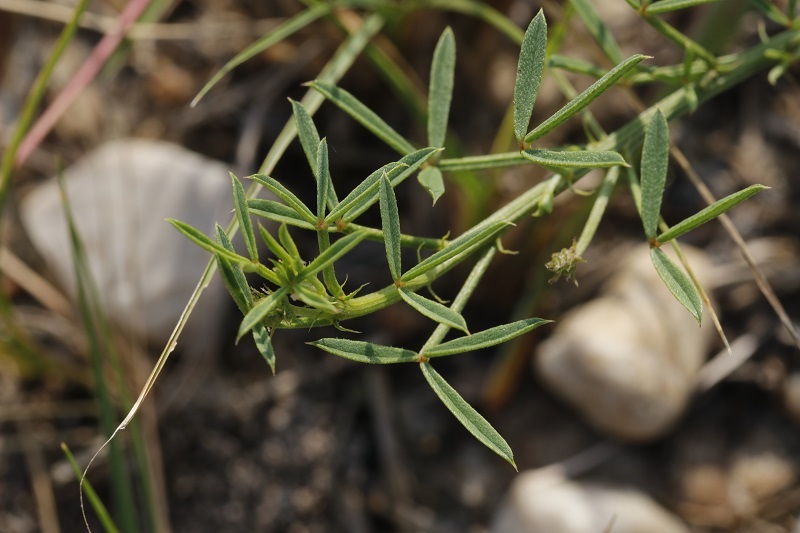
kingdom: Plantae
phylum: Tracheophyta
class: Magnoliopsida
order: Fabales
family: Fabaceae
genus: Indigofera
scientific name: Indigofera heterophylla
